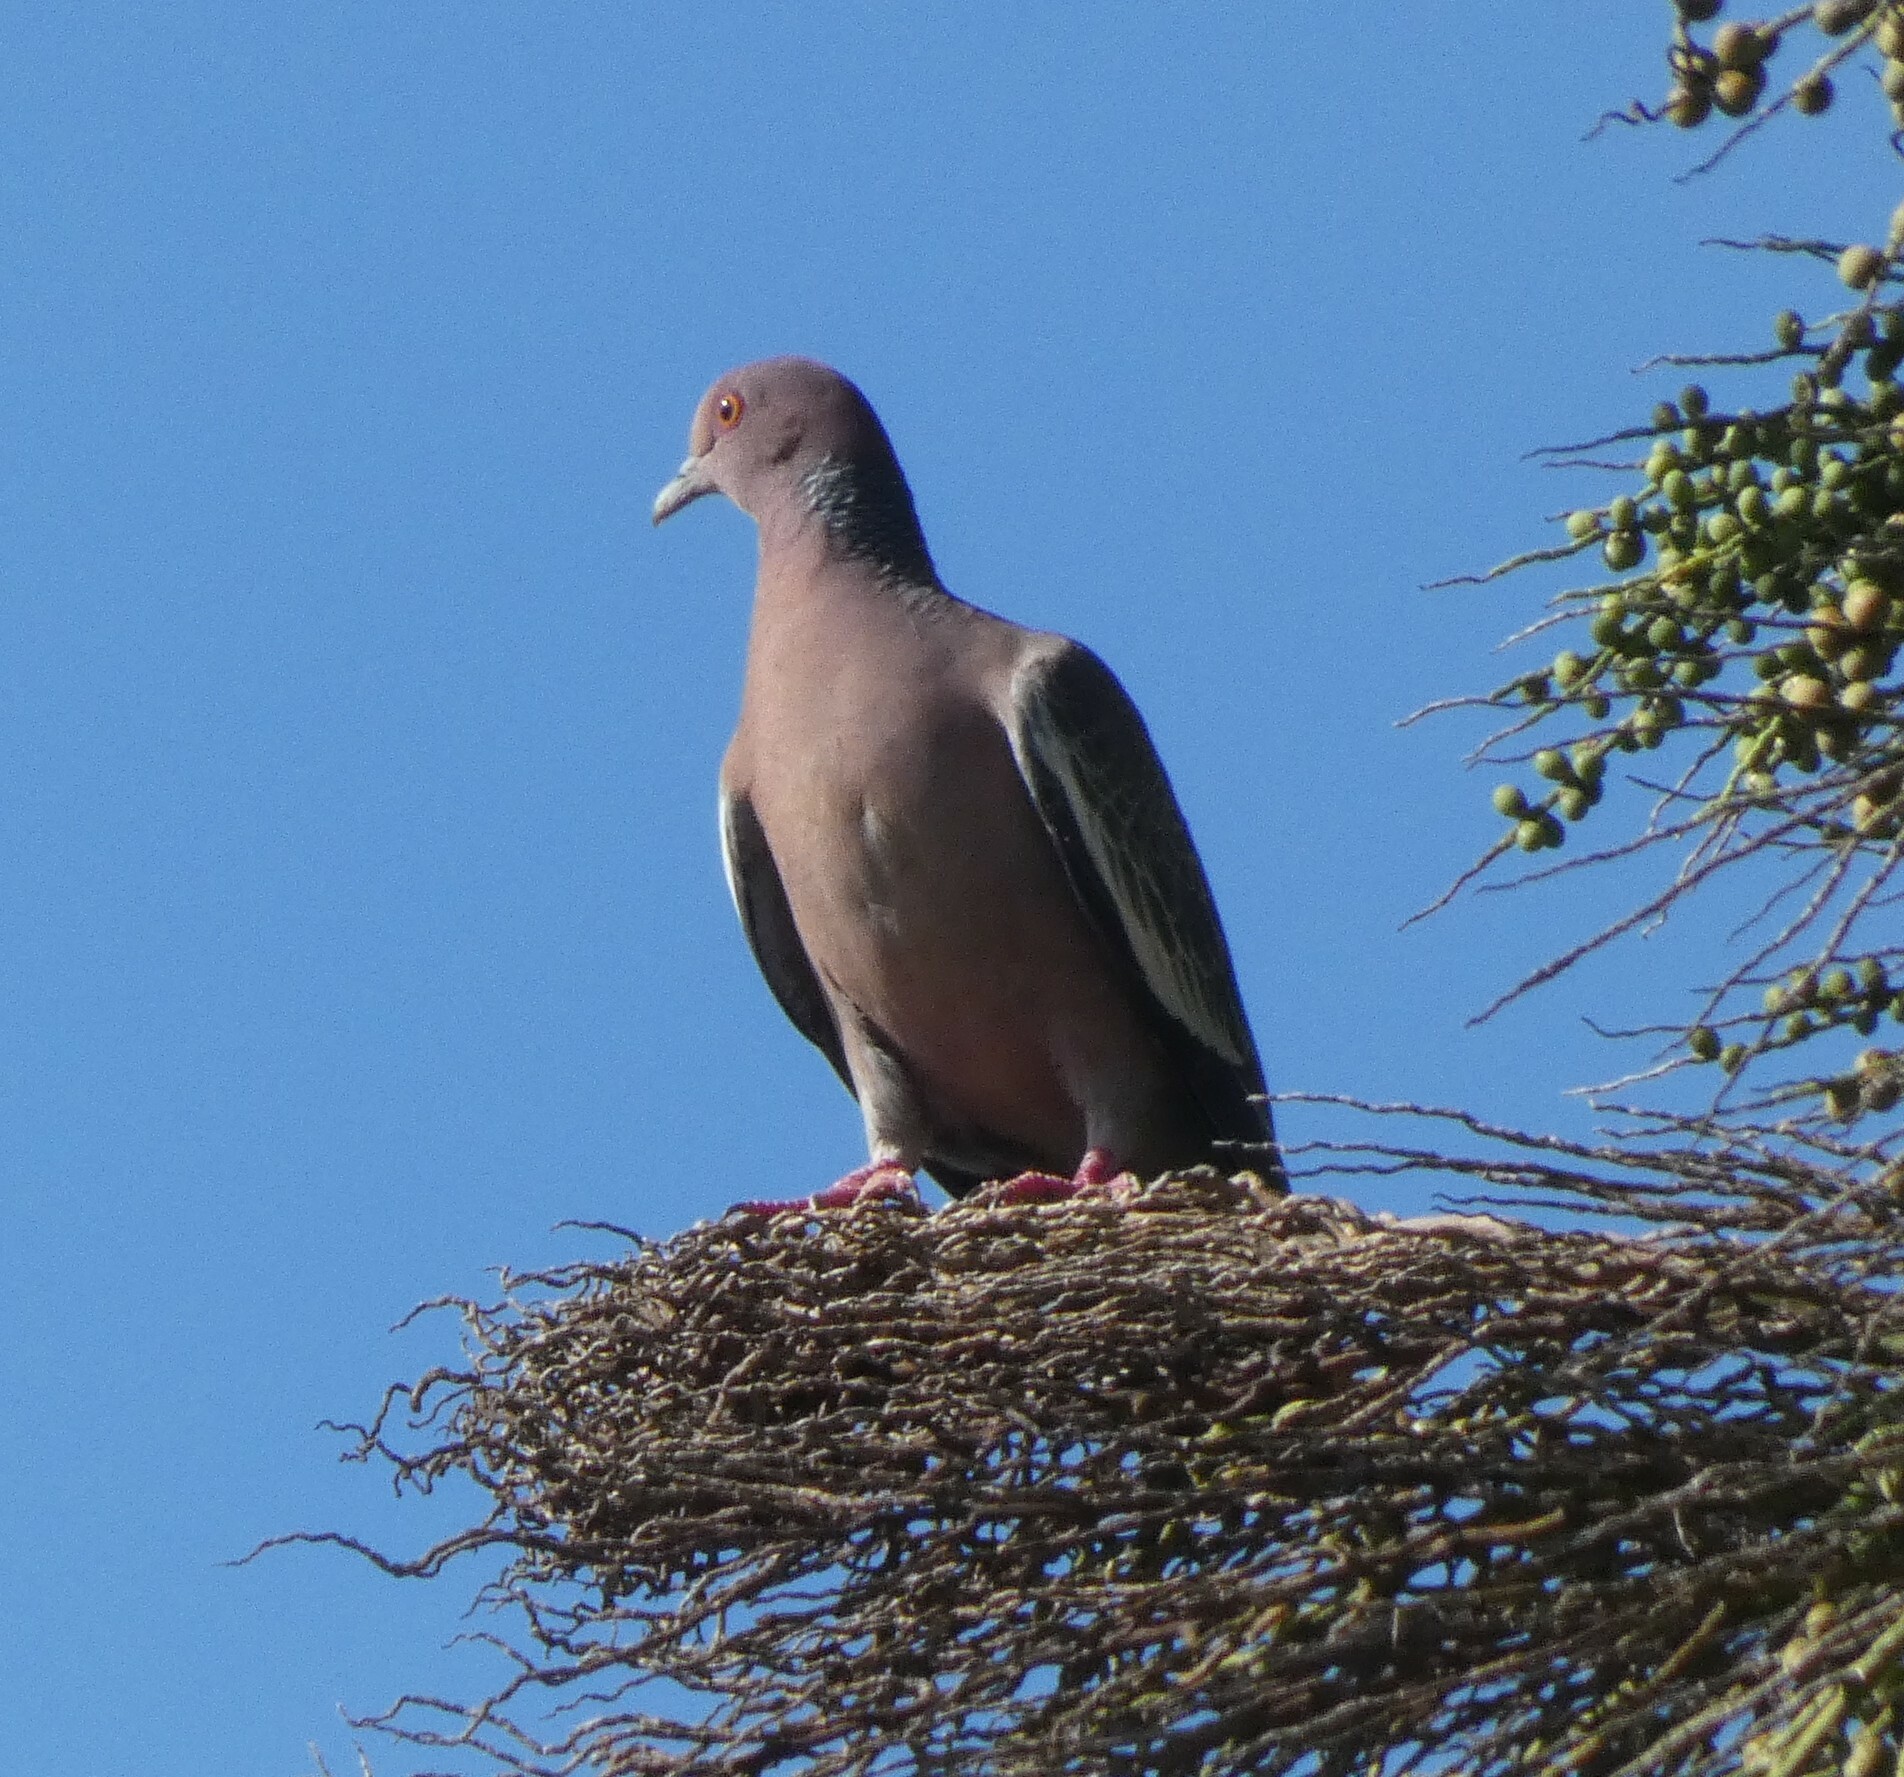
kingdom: Animalia
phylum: Chordata
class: Aves
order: Columbiformes
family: Columbidae
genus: Patagioenas
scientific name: Patagioenas picazuro
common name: Picazuro pigeon
